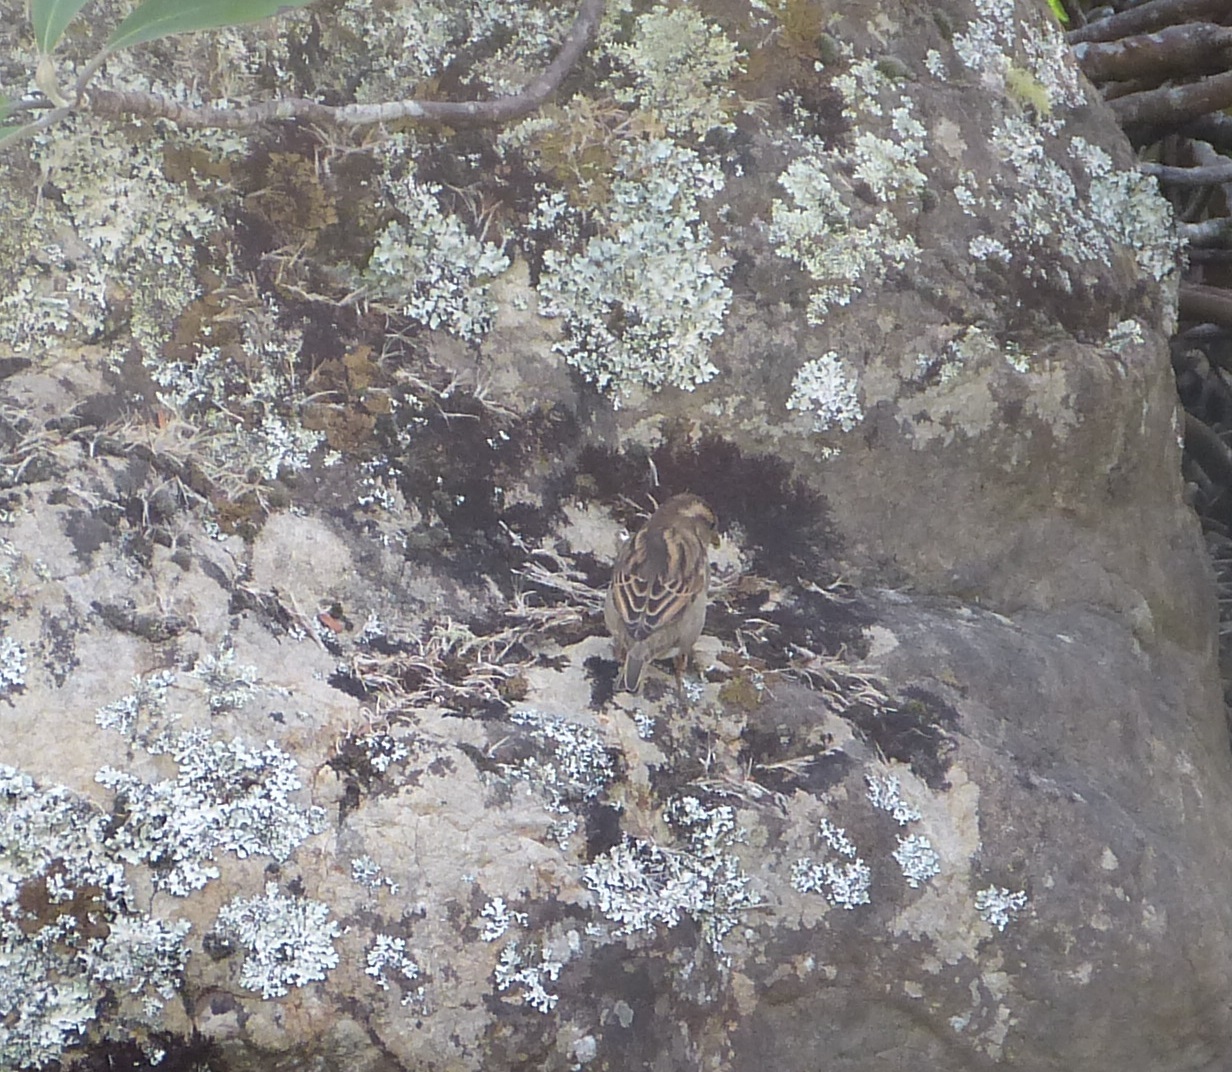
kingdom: Animalia
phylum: Chordata
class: Aves
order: Passeriformes
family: Passeridae
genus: Passer
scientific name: Passer domesticus
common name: House sparrow
